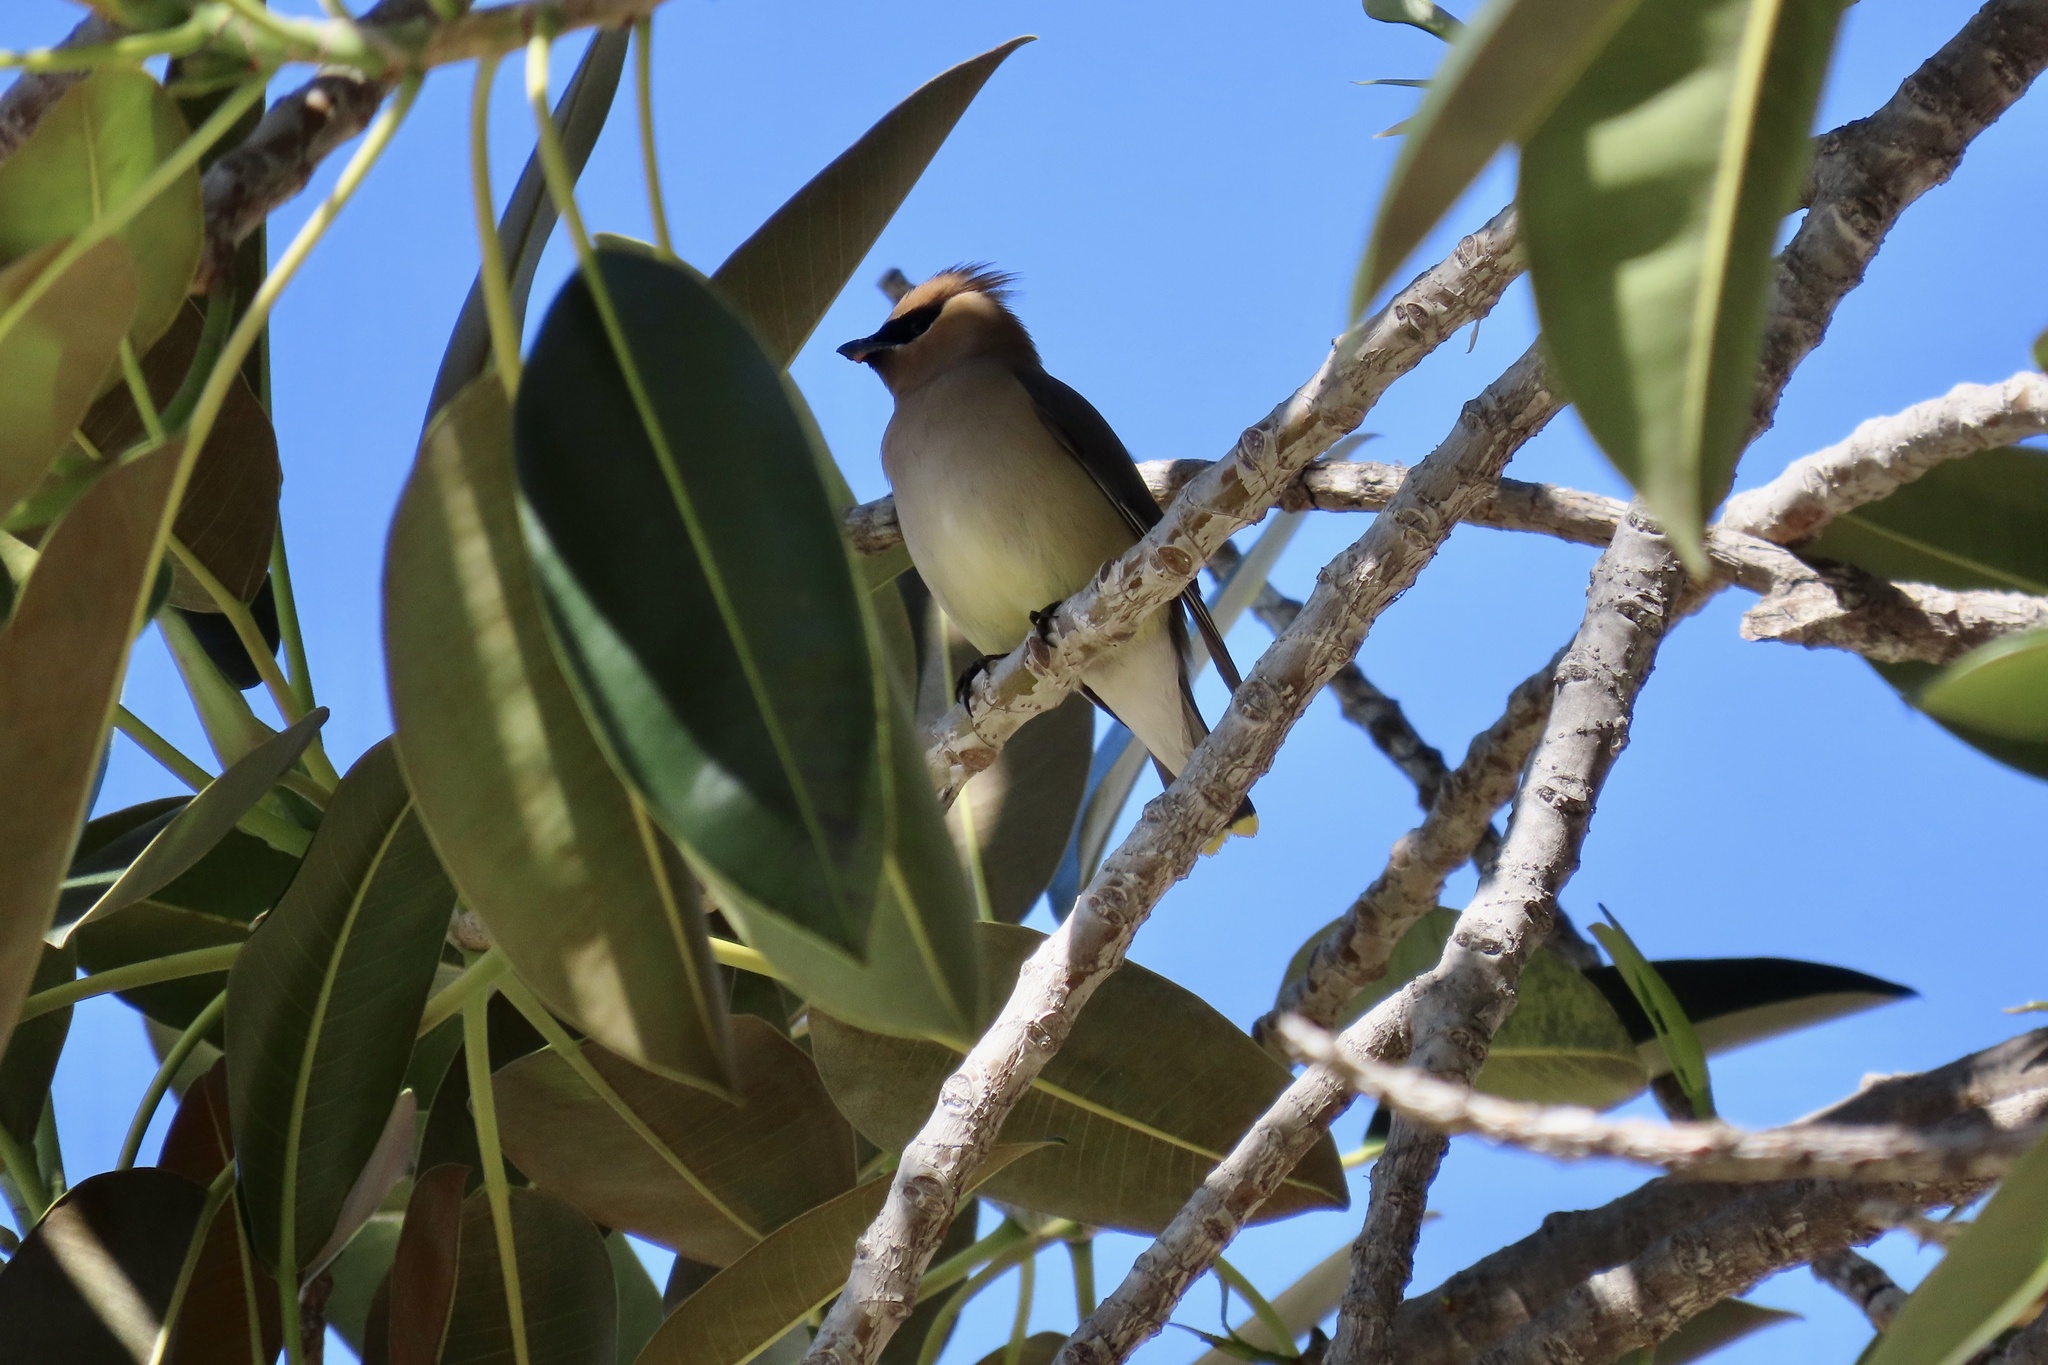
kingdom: Animalia
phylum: Chordata
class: Aves
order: Passeriformes
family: Bombycillidae
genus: Bombycilla
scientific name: Bombycilla cedrorum
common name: Cedar waxwing
